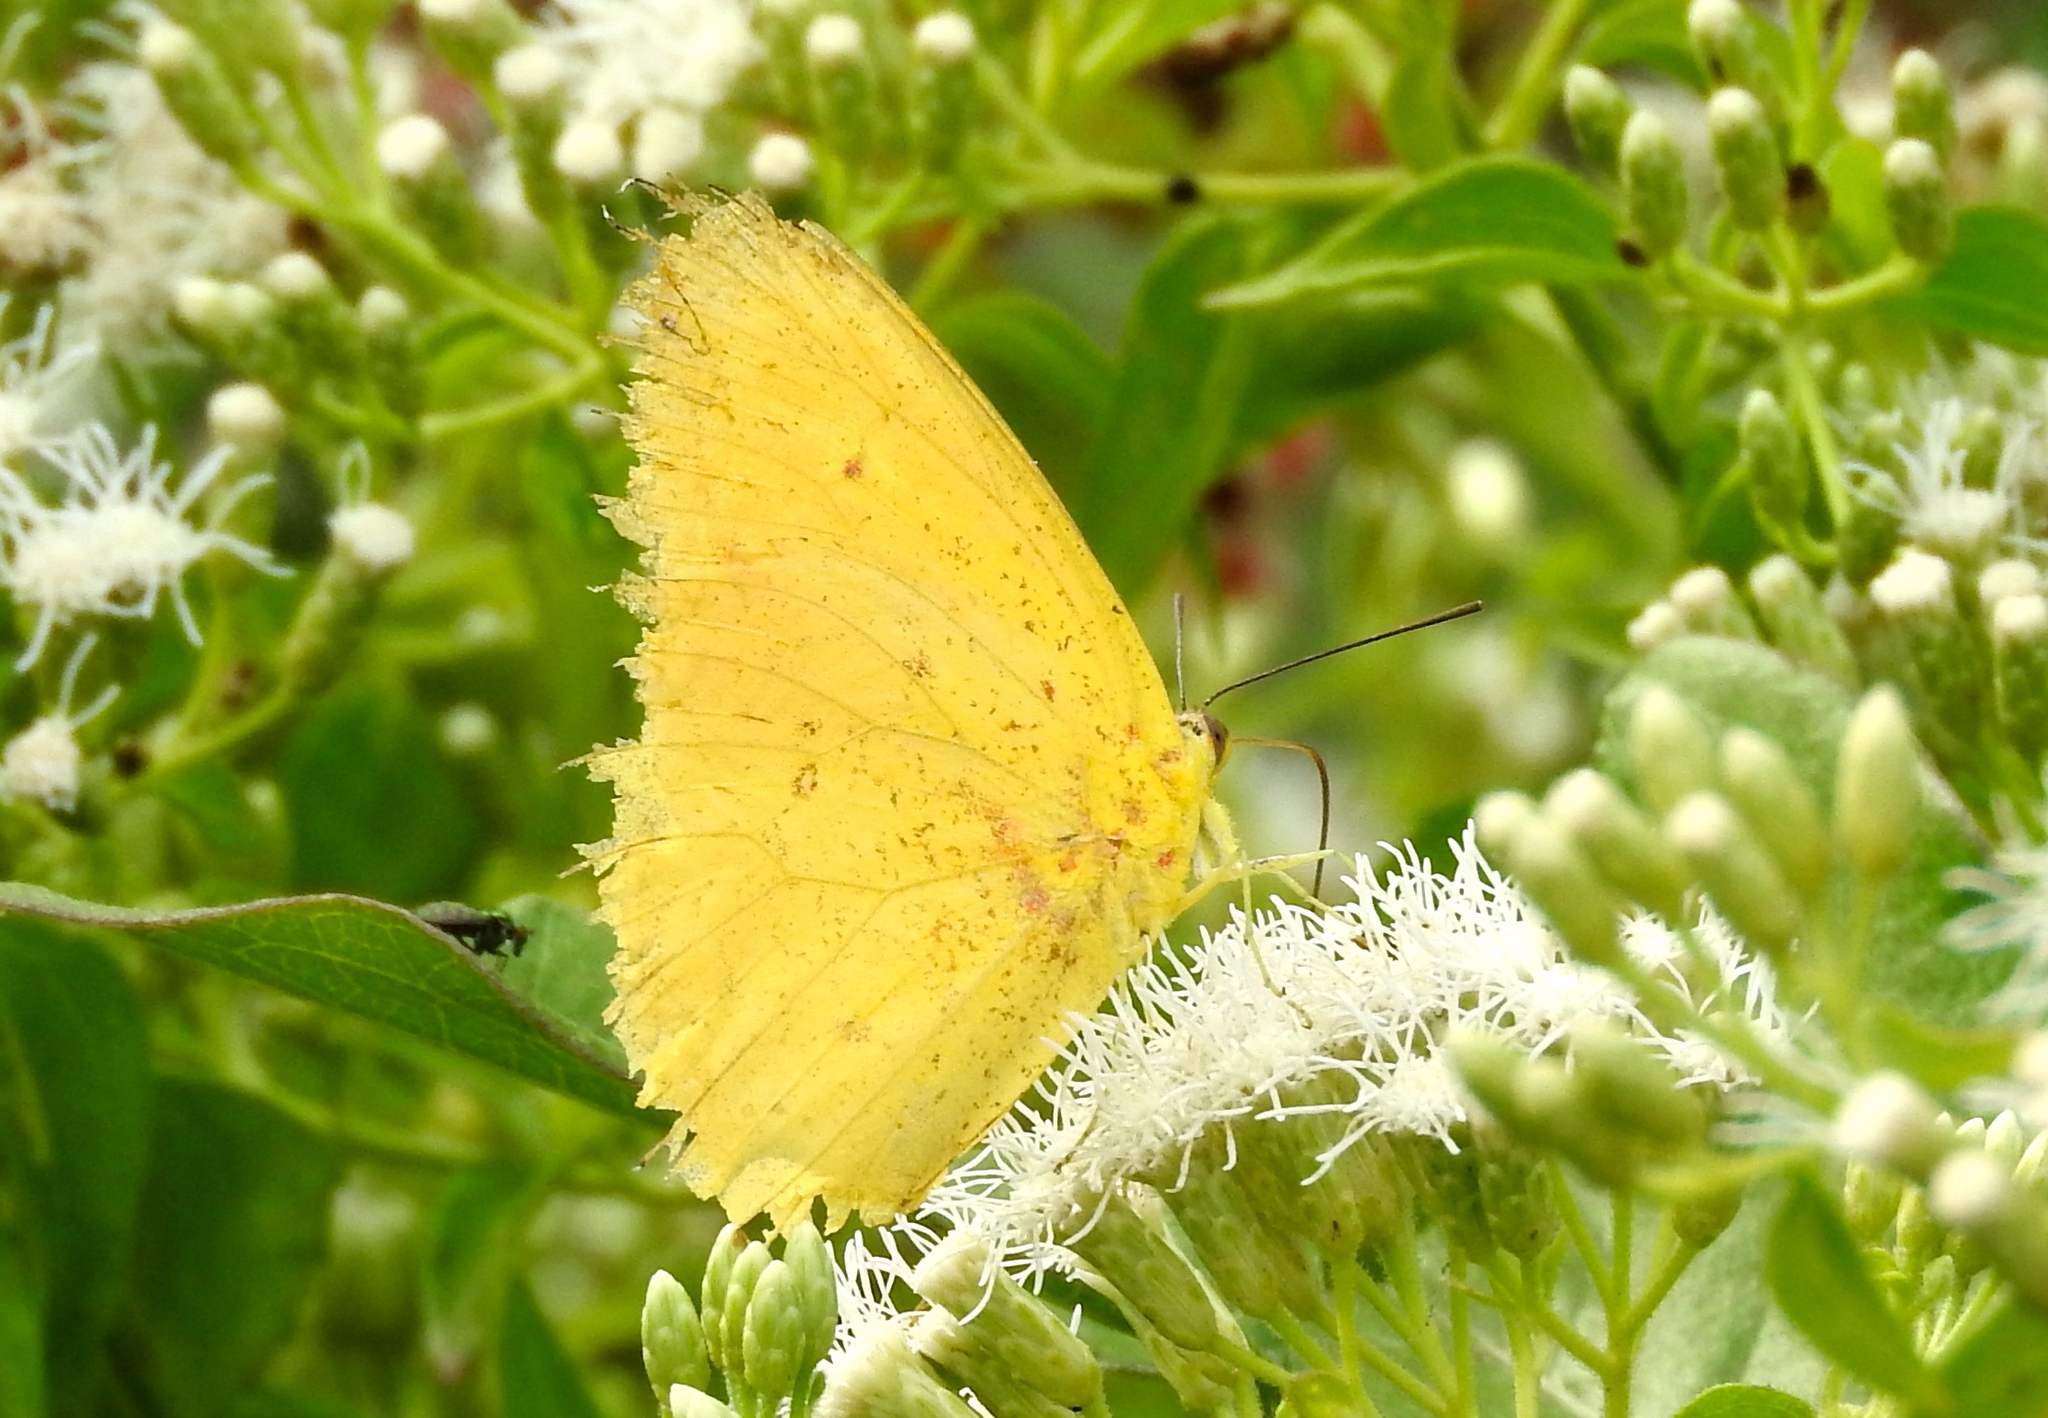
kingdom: Animalia
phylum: Arthropoda
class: Insecta
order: Lepidoptera
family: Pieridae
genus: Phoebis
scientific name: Phoebis argante
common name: Apricot sulphur
